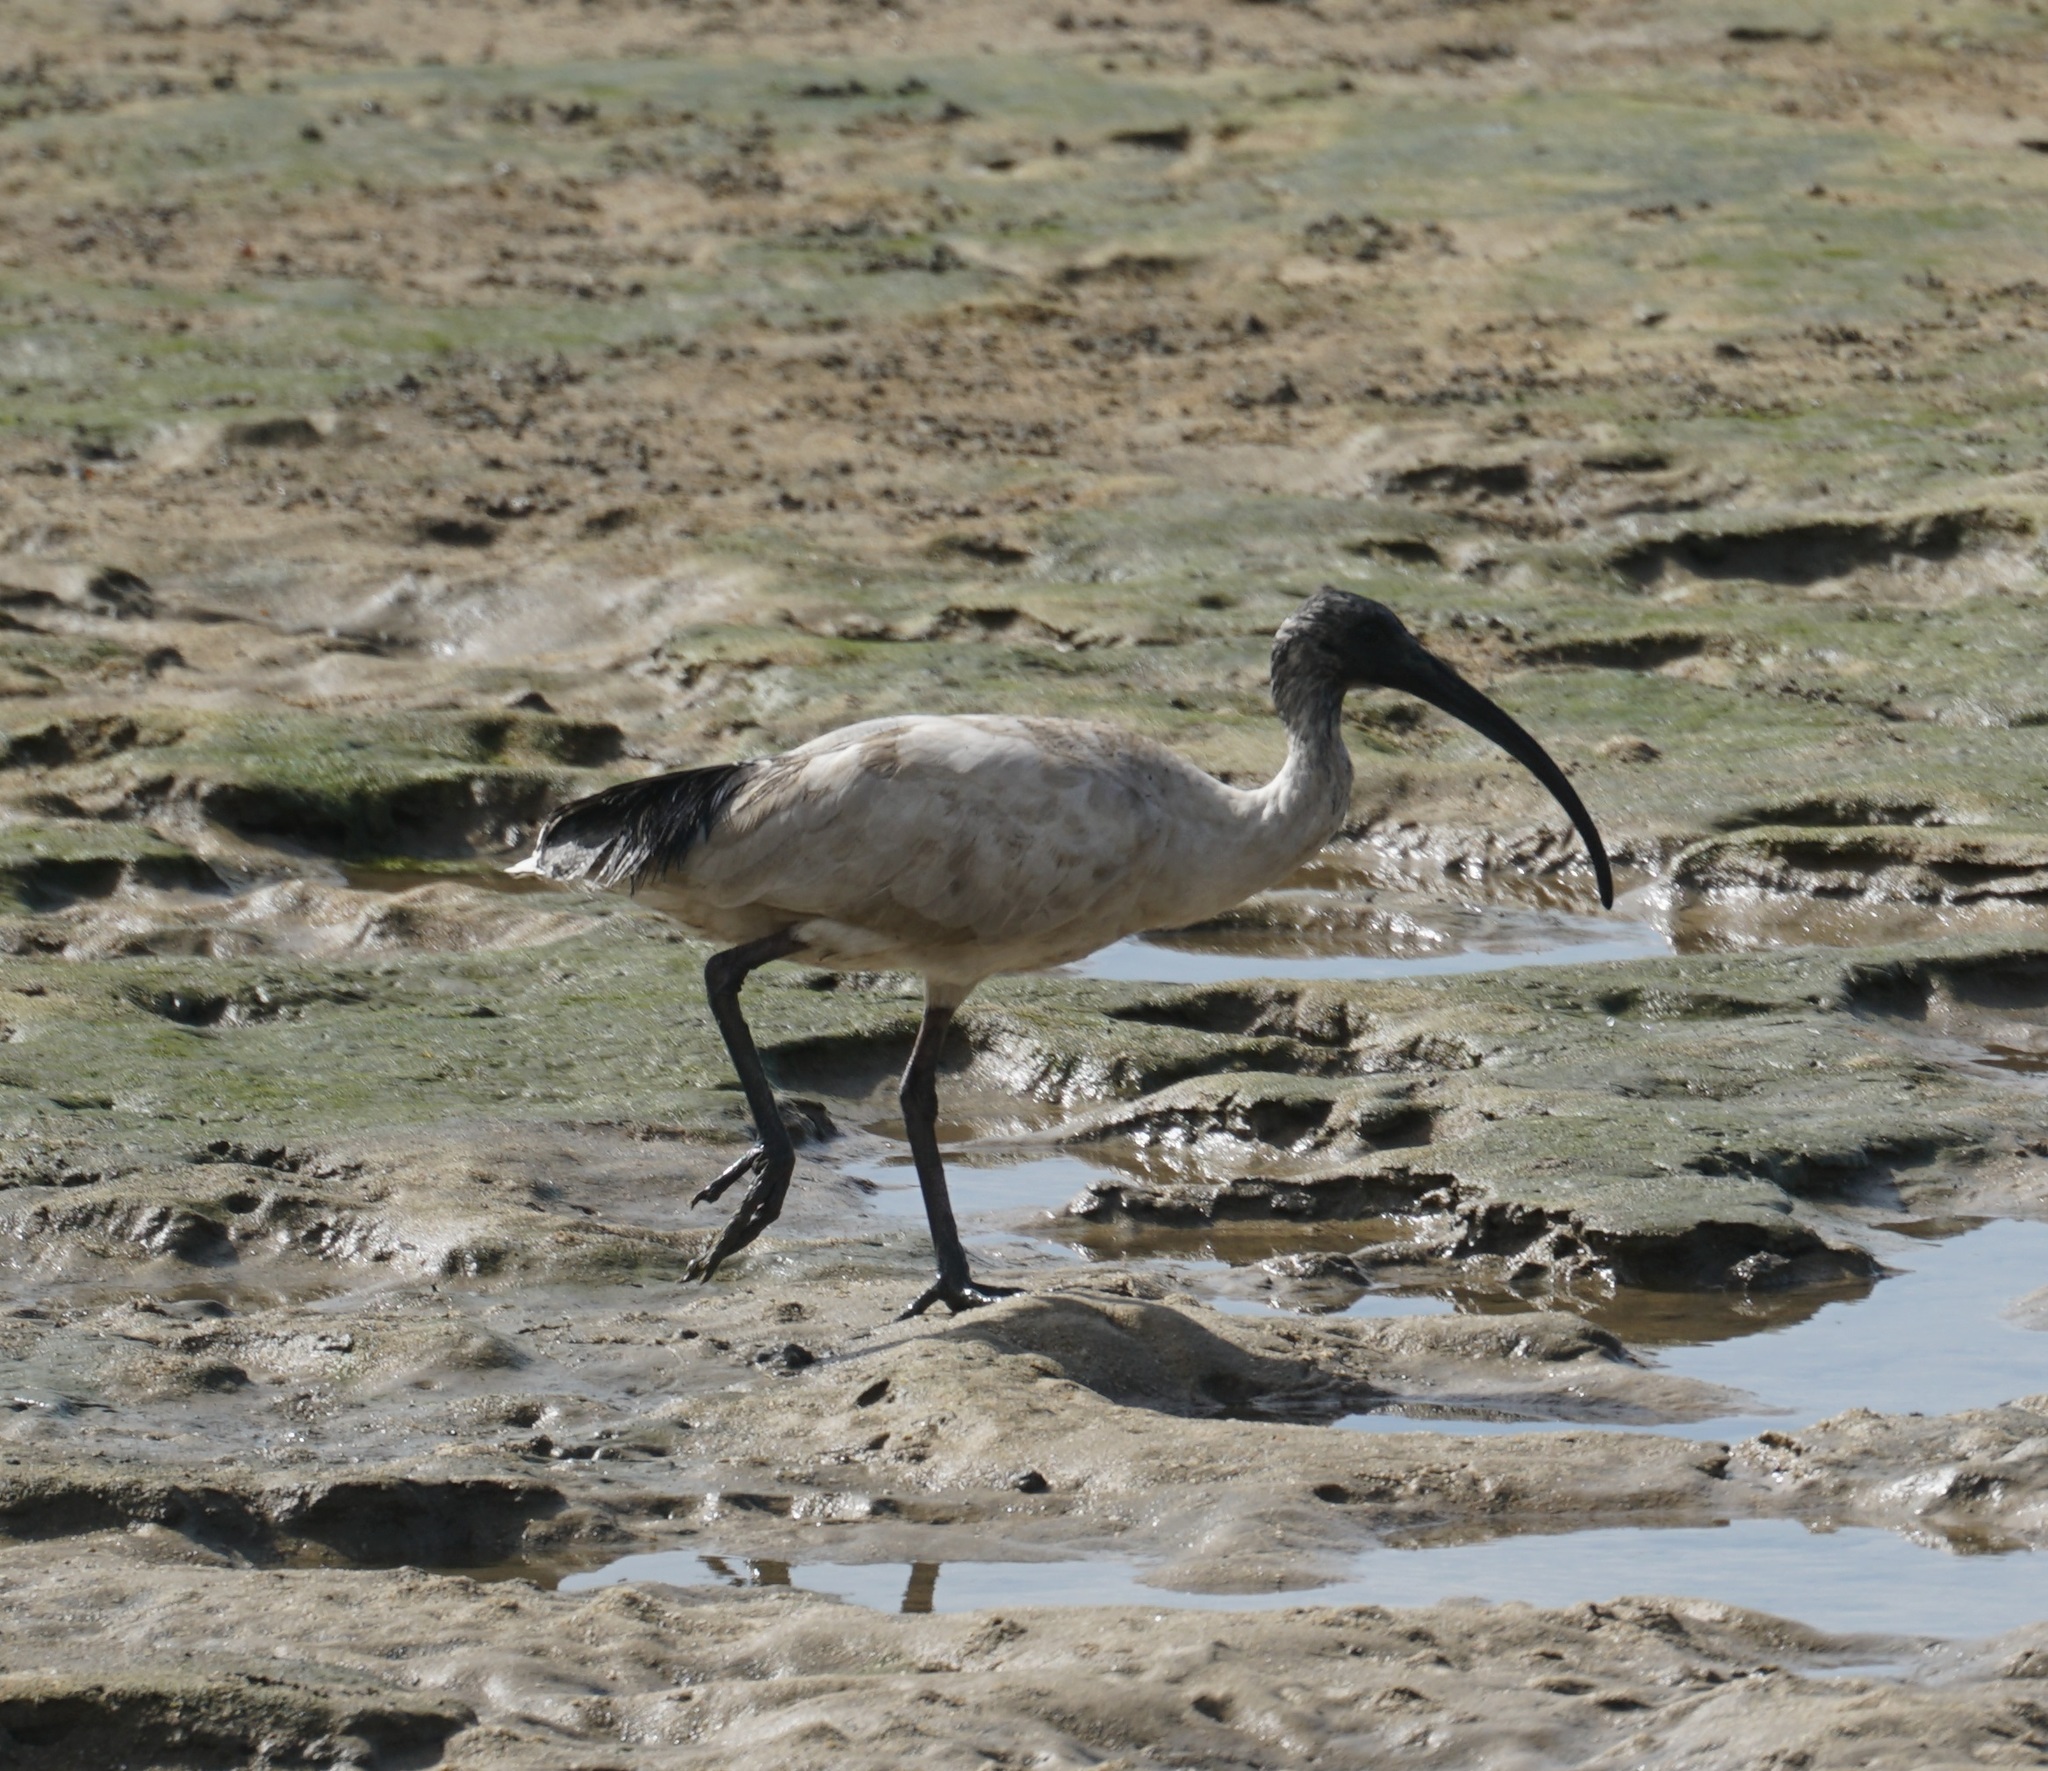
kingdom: Animalia
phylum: Chordata
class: Aves
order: Pelecaniformes
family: Threskiornithidae
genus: Threskiornis
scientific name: Threskiornis molucca
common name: Australian white ibis
